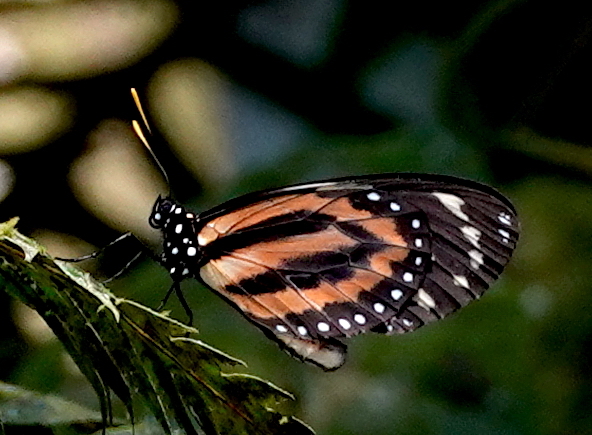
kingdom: Animalia
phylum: Arthropoda
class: Insecta
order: Lepidoptera
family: Nymphalidae
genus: Lycorea
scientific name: Lycorea cleobaea
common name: Tiger mimic-queen
